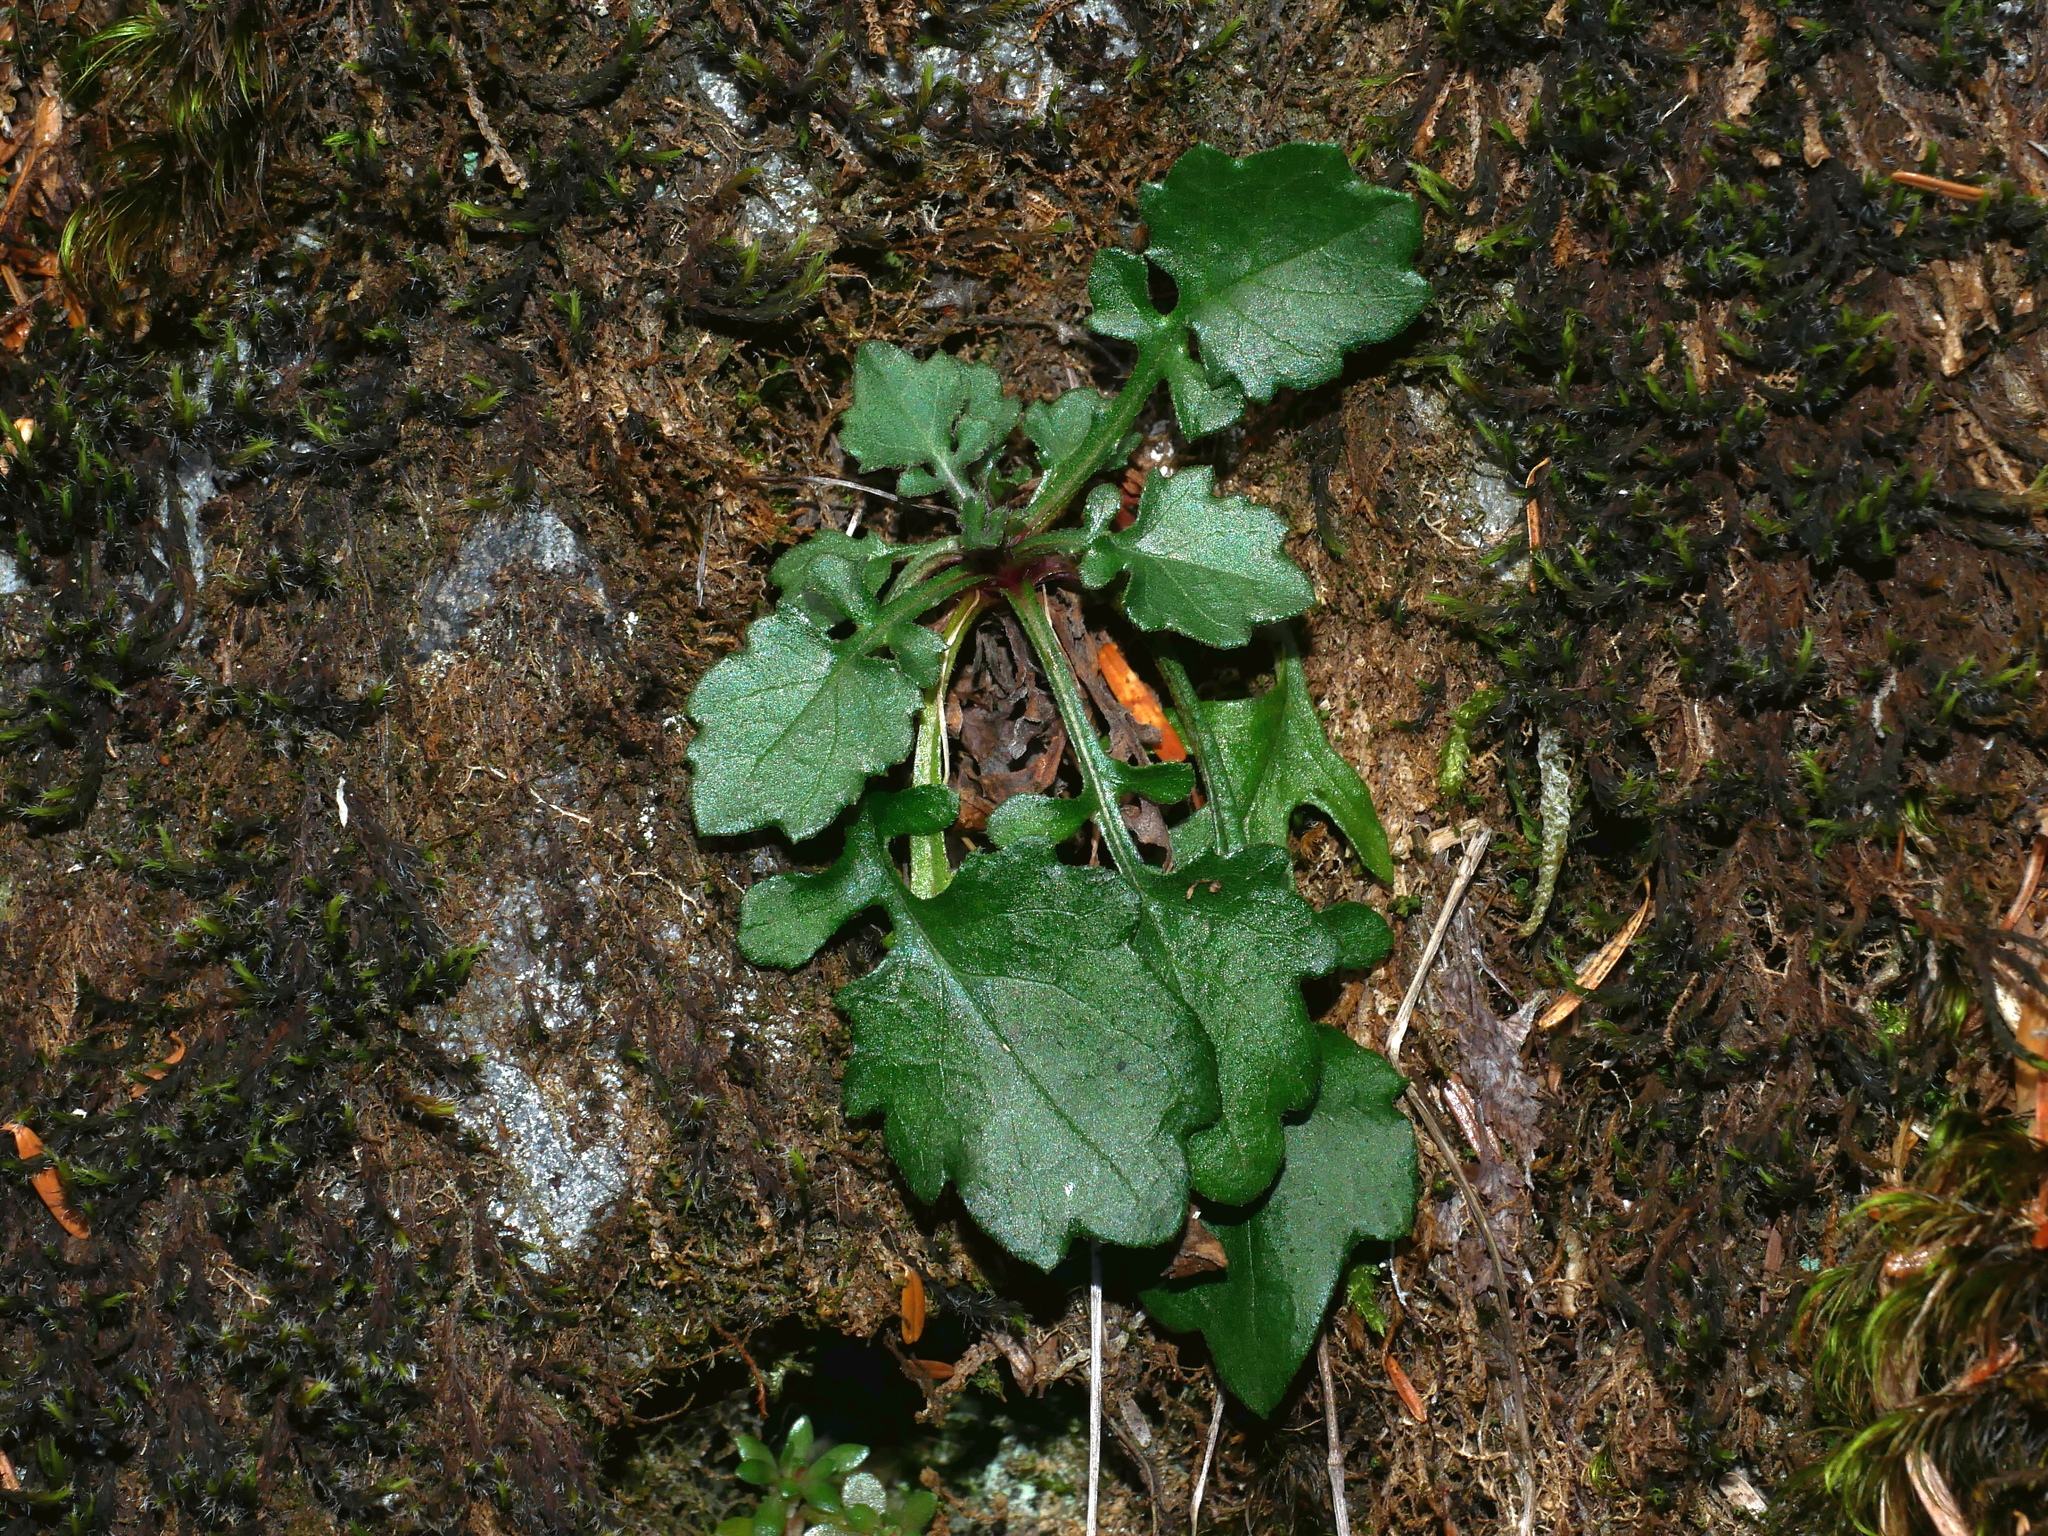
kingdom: Plantae
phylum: Tracheophyta
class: Magnoliopsida
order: Asterales
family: Asteraceae
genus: Myriactis
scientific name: Myriactis humilis
